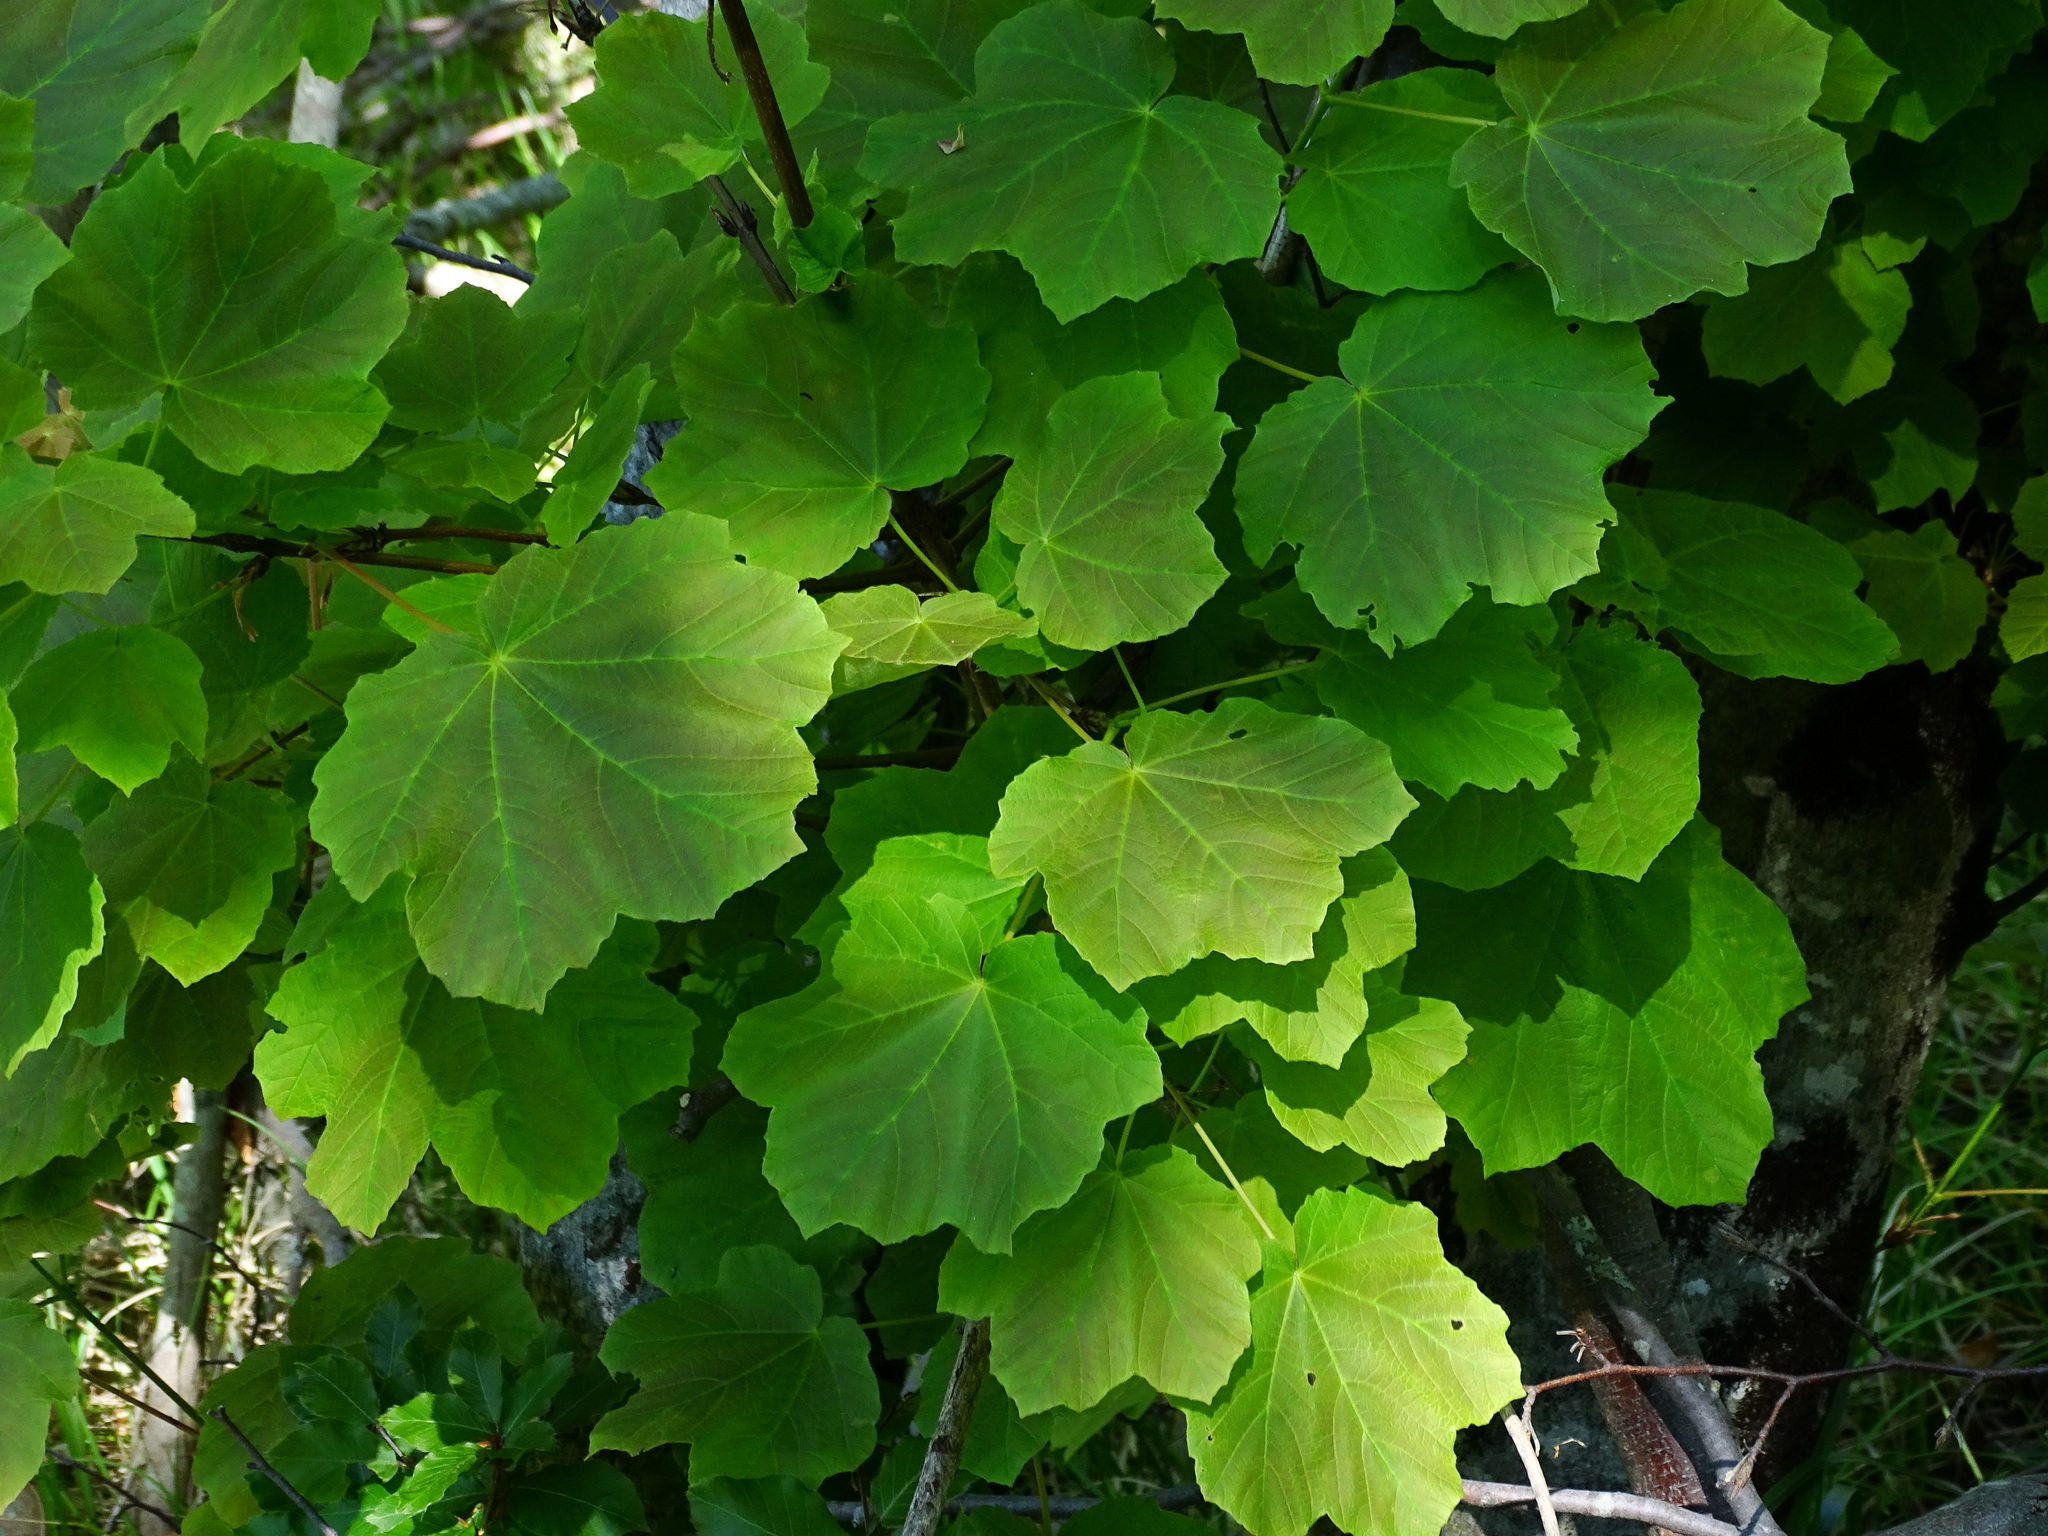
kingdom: Plantae
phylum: Tracheophyta
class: Magnoliopsida
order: Sapindales
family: Sapindaceae
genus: Acer
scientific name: Acer obtusatum
